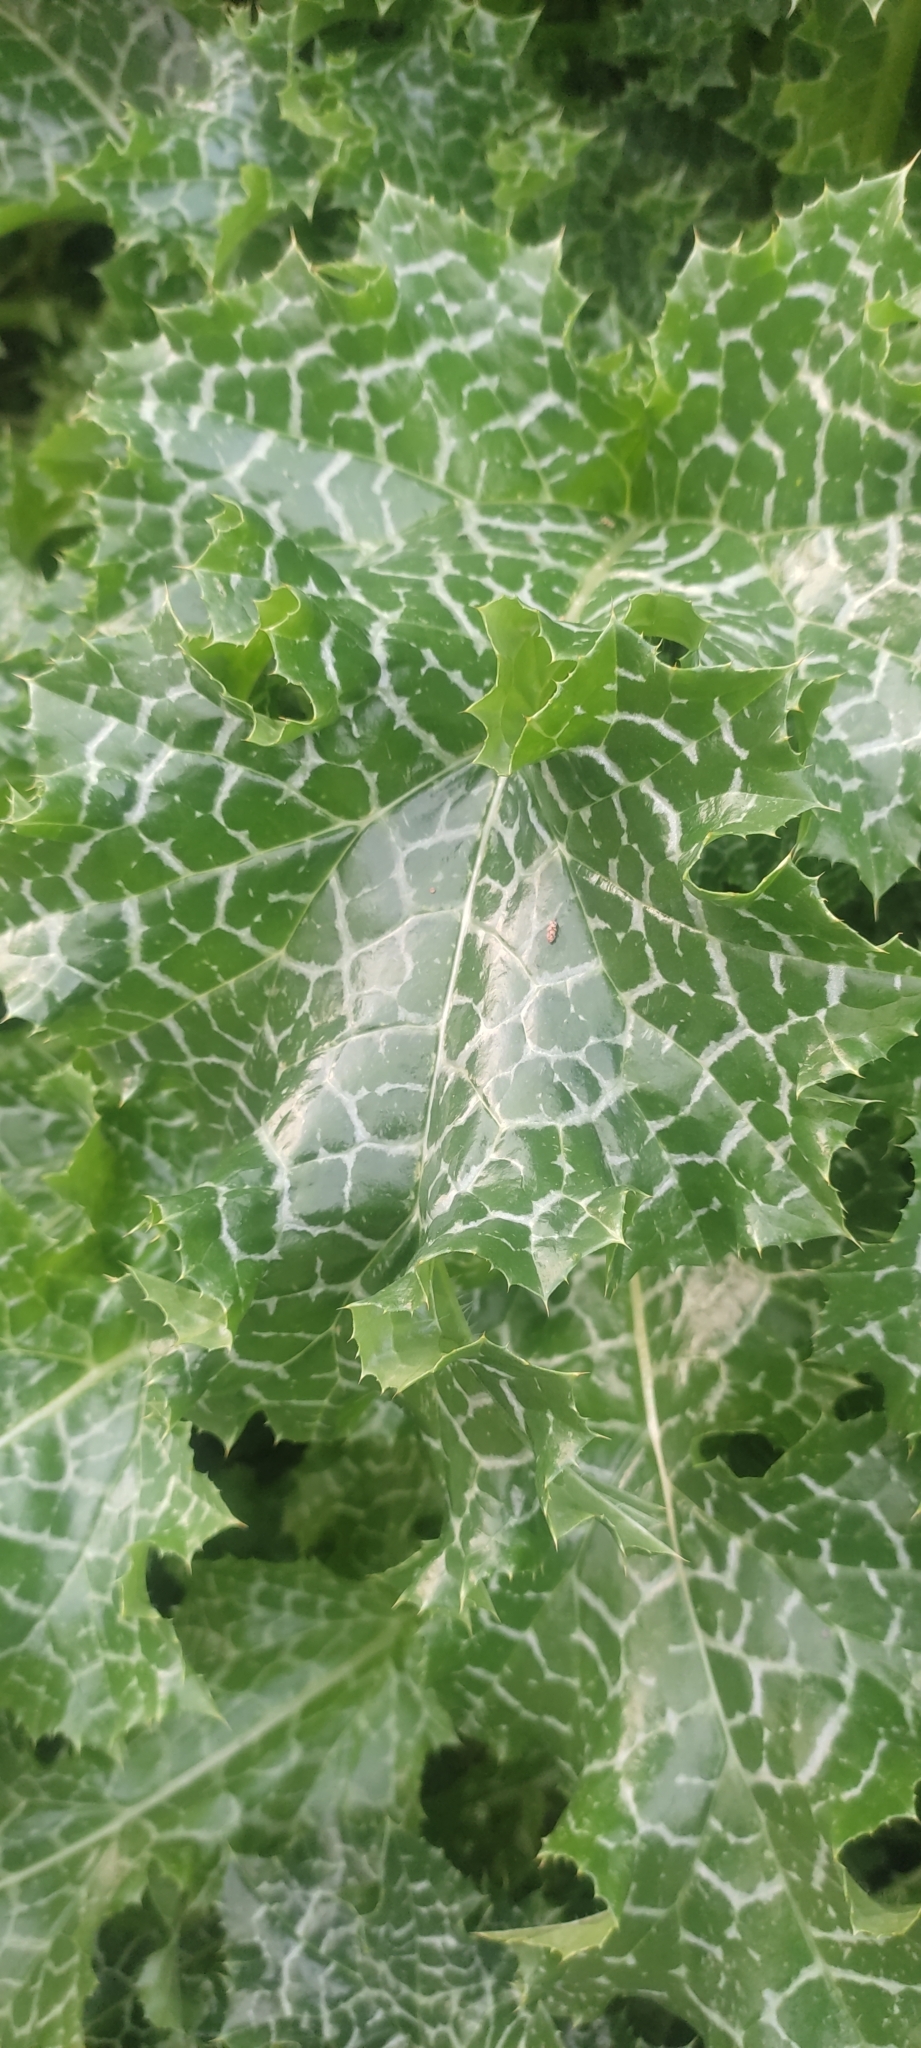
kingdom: Plantae
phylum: Tracheophyta
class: Magnoliopsida
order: Asterales
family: Asteraceae
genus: Silybum
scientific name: Silybum marianum
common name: Milk thistle
